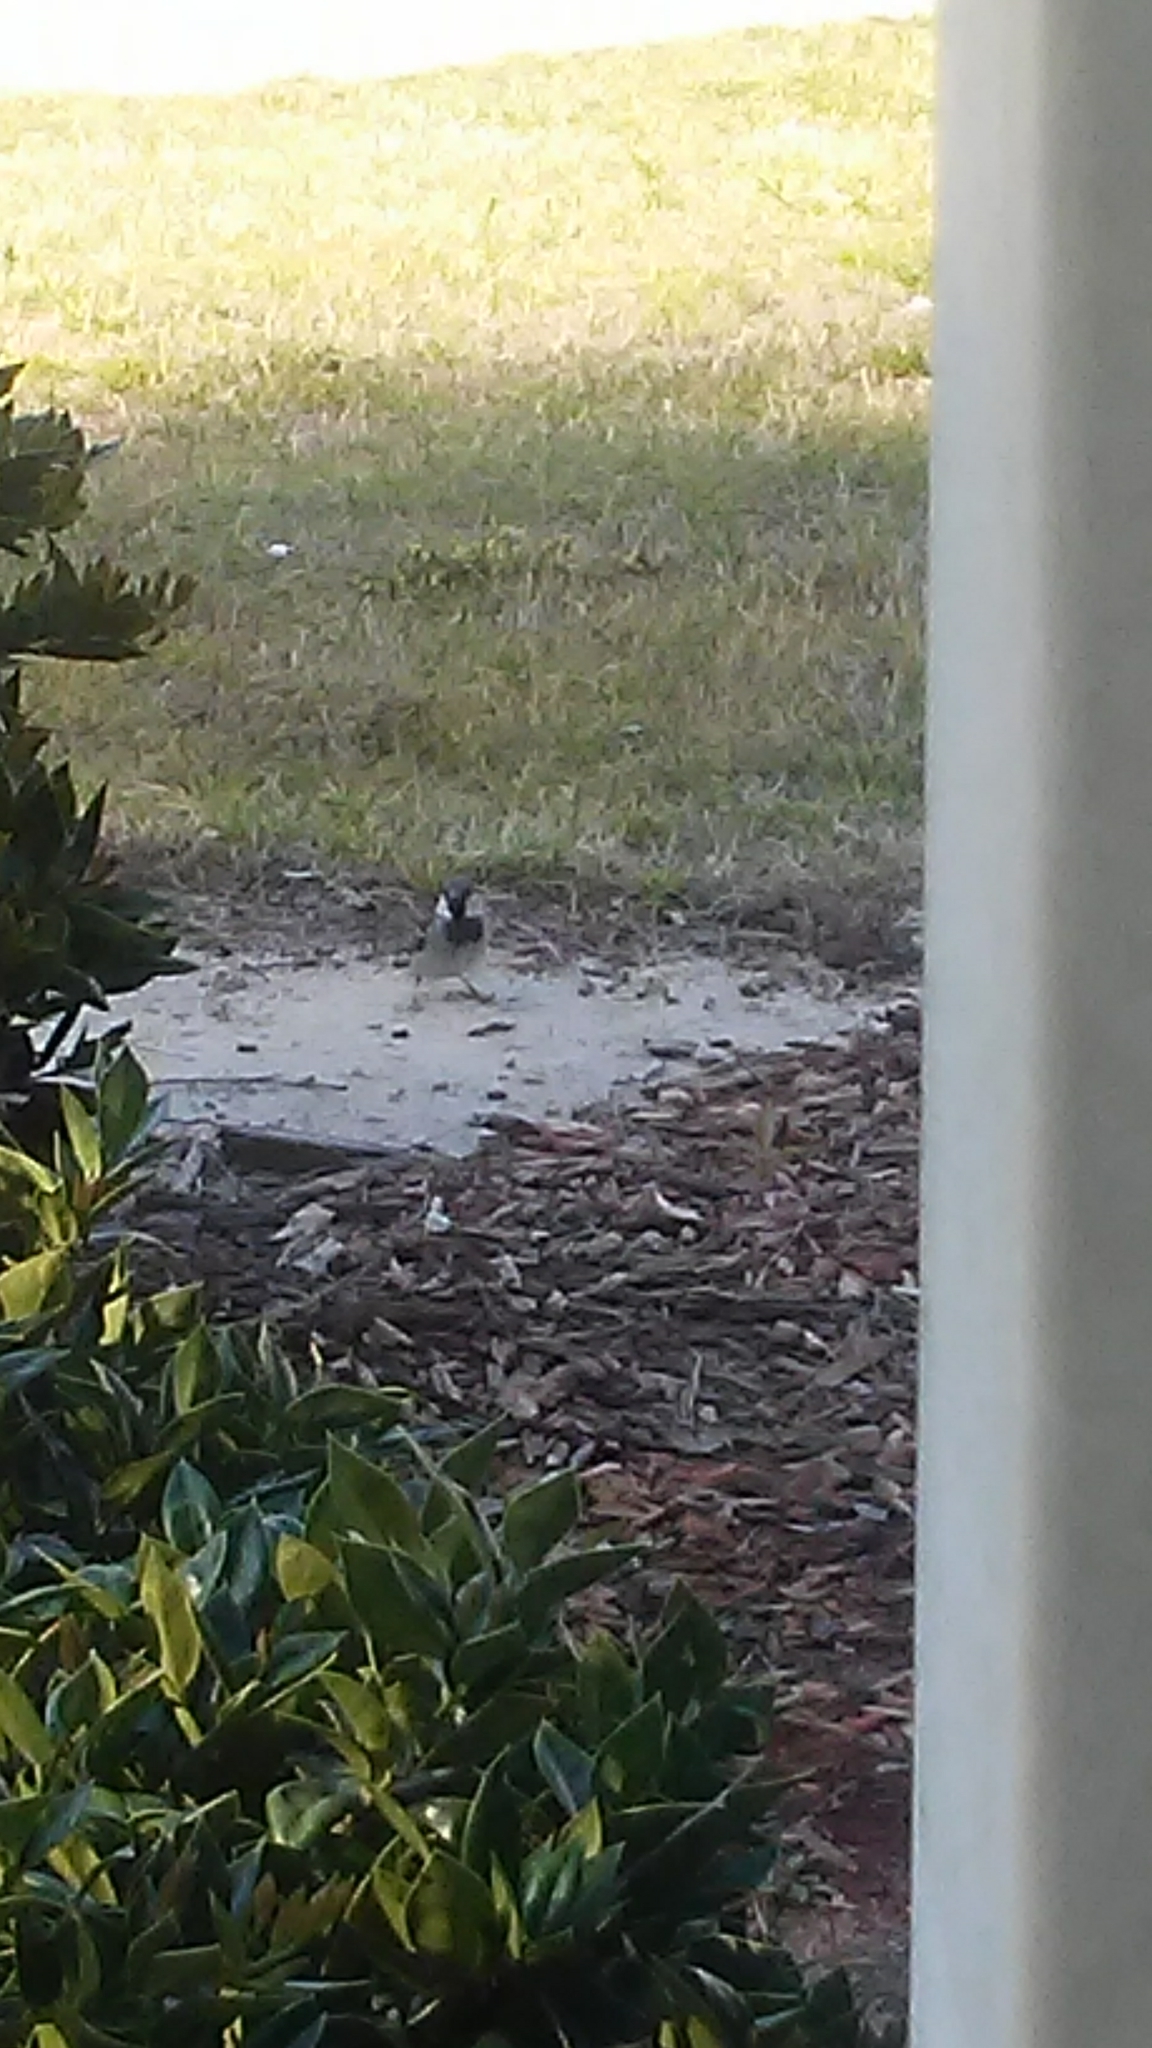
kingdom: Animalia
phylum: Chordata
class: Aves
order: Passeriformes
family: Paridae
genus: Poecile
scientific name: Poecile carolinensis
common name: Carolina chickadee
